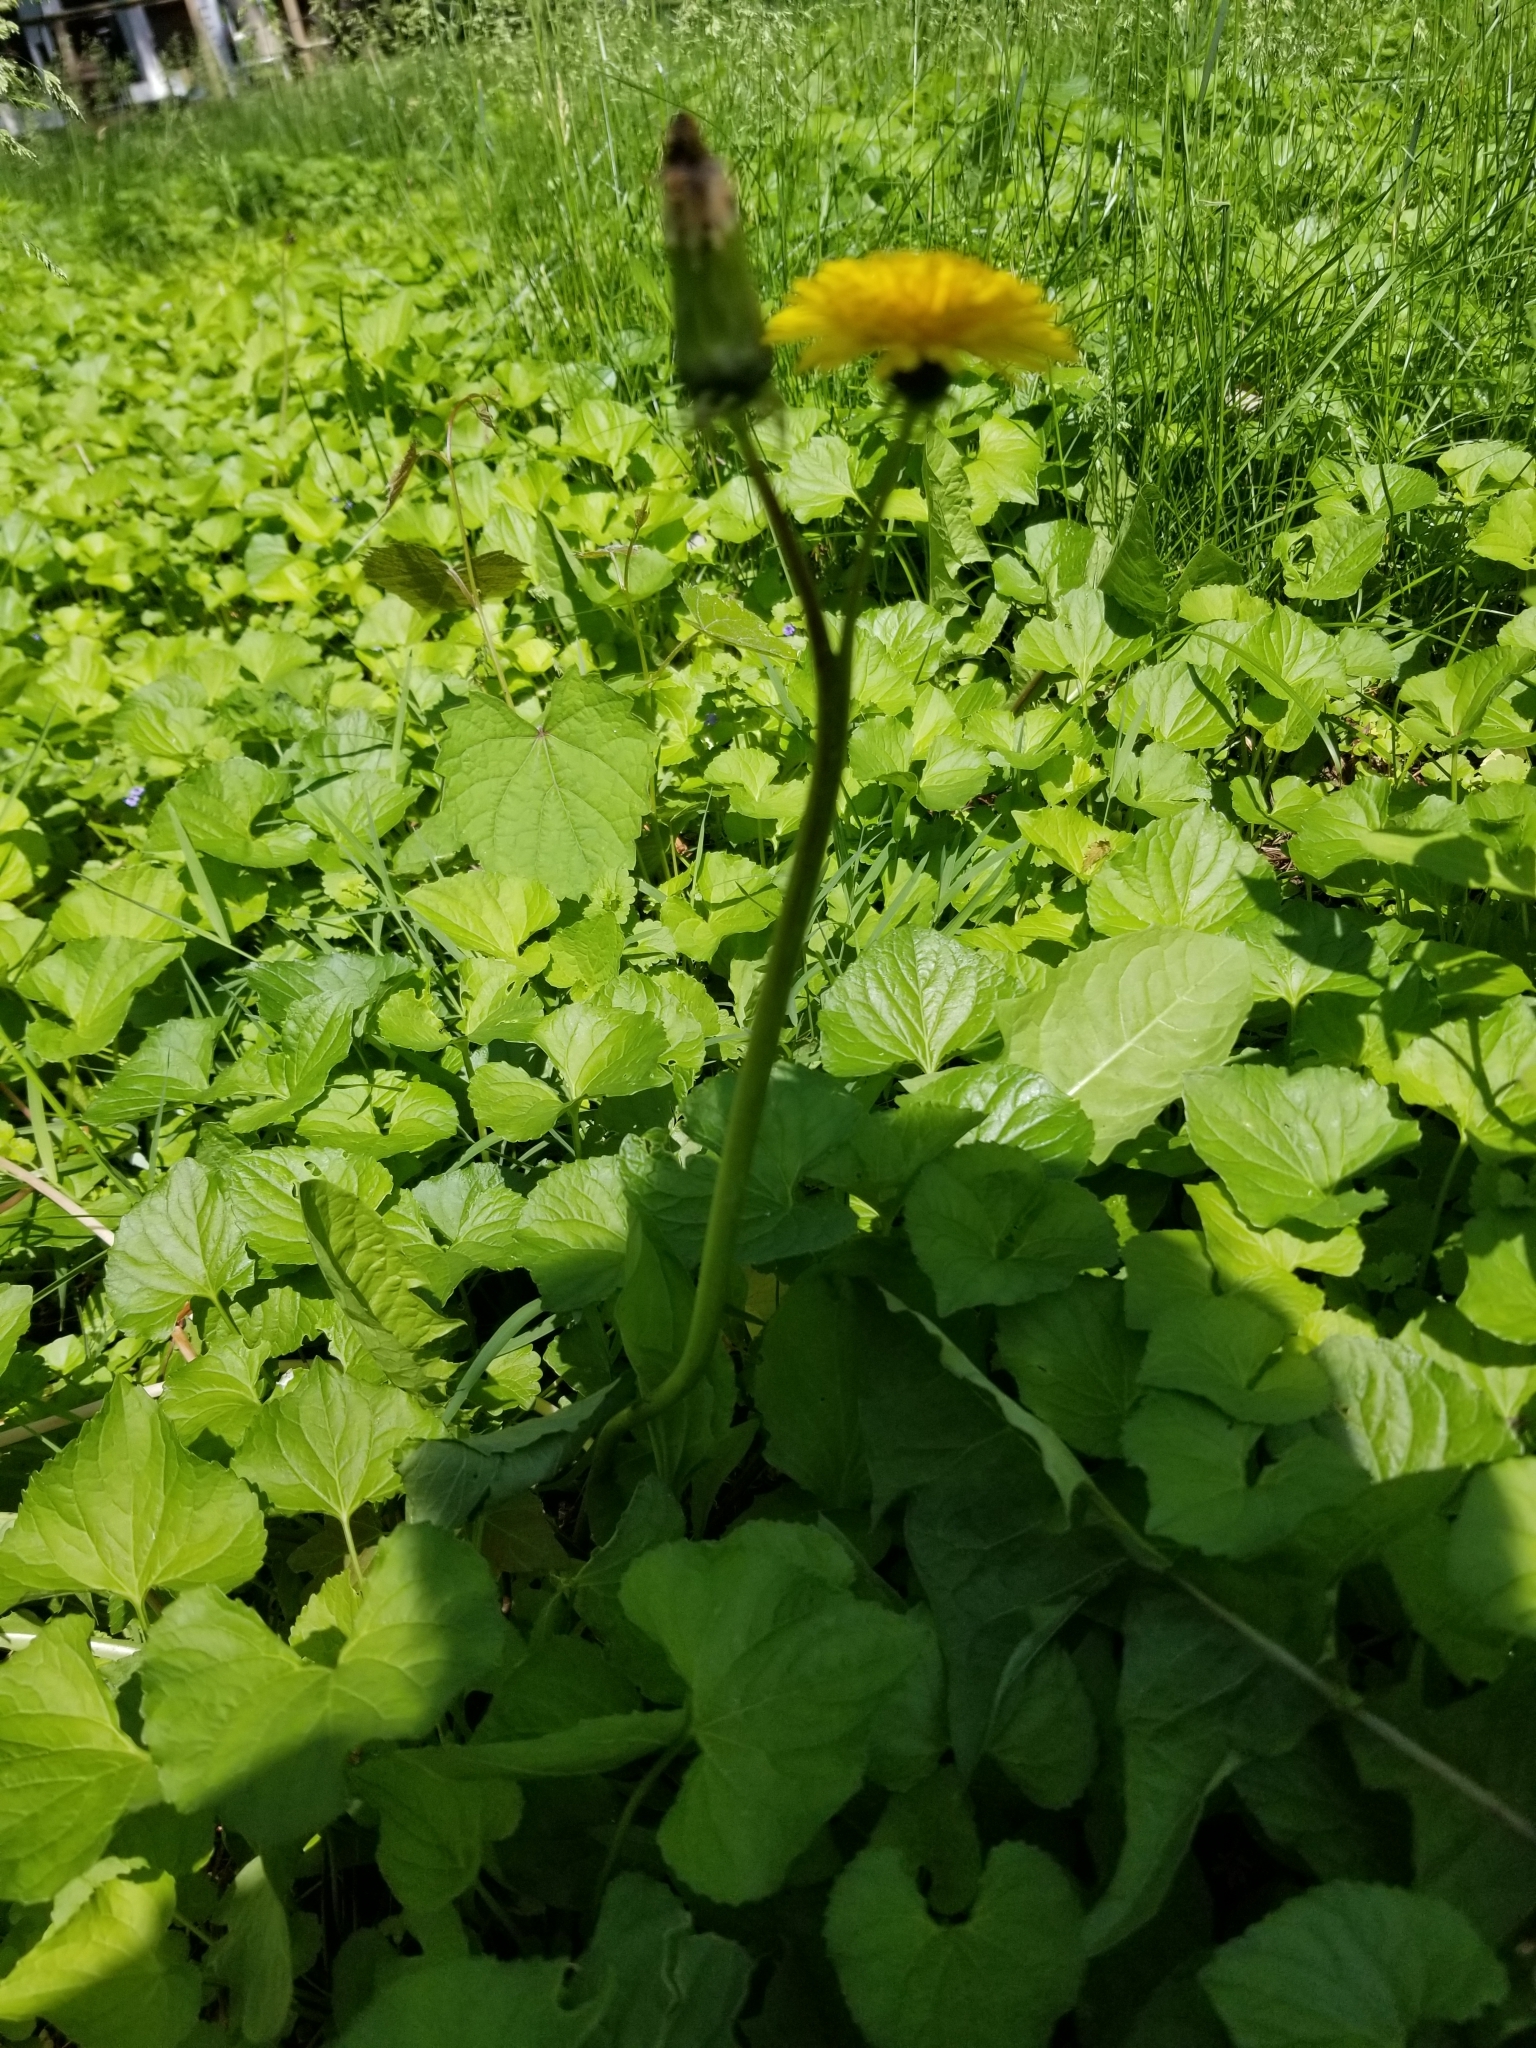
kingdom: Plantae
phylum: Tracheophyta
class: Magnoliopsida
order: Asterales
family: Asteraceae
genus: Taraxacum
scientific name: Taraxacum officinale
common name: Common dandelion
